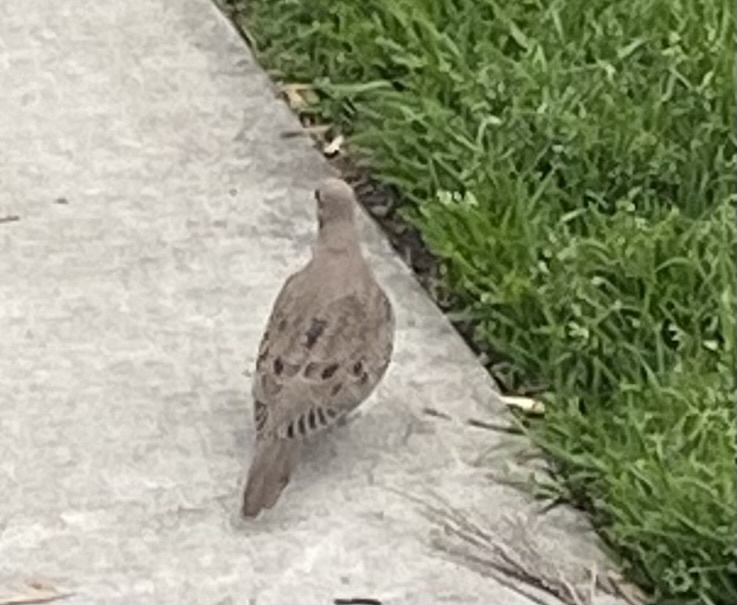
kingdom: Animalia
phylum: Chordata
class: Aves
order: Columbiformes
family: Columbidae
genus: Zenaida
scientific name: Zenaida macroura
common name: Mourning dove
